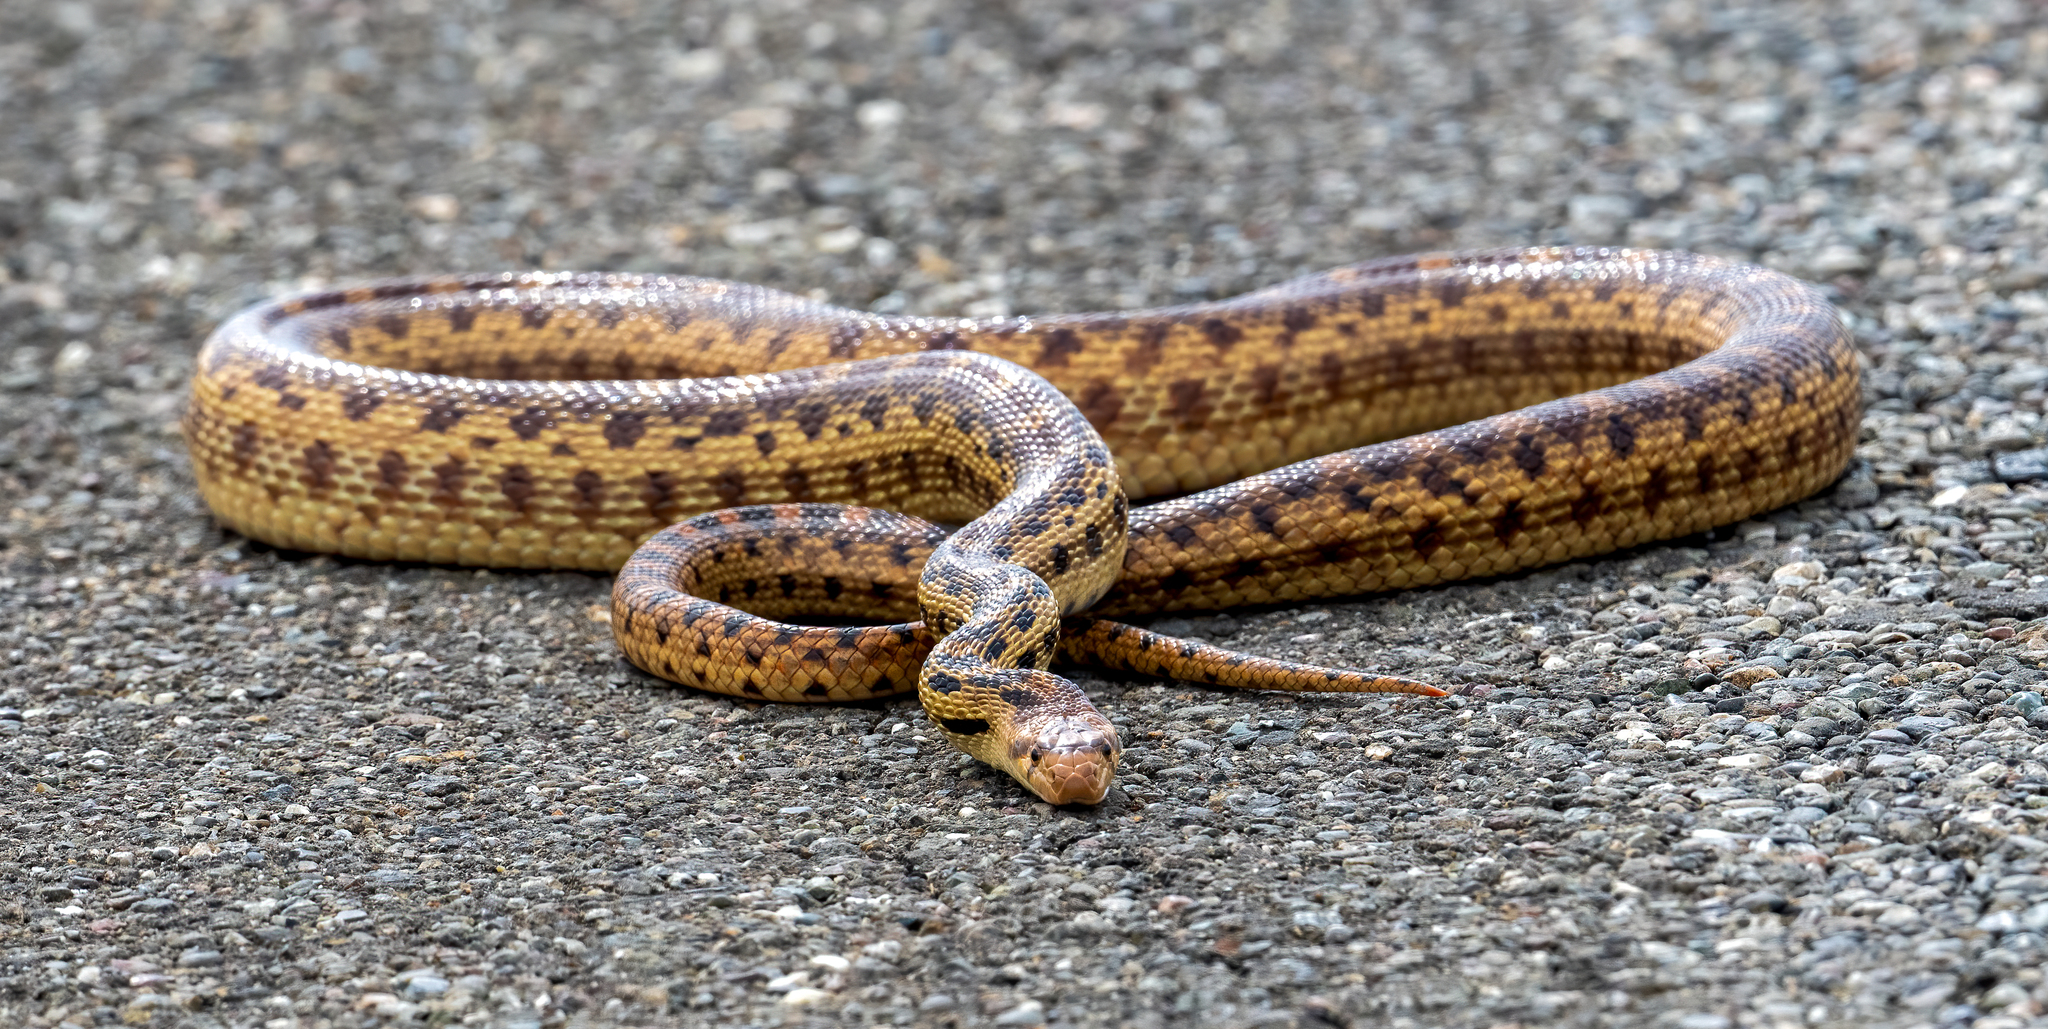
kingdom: Animalia
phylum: Chordata
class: Squamata
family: Colubridae
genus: Pituophis
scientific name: Pituophis catenifer
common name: Gopher snake
